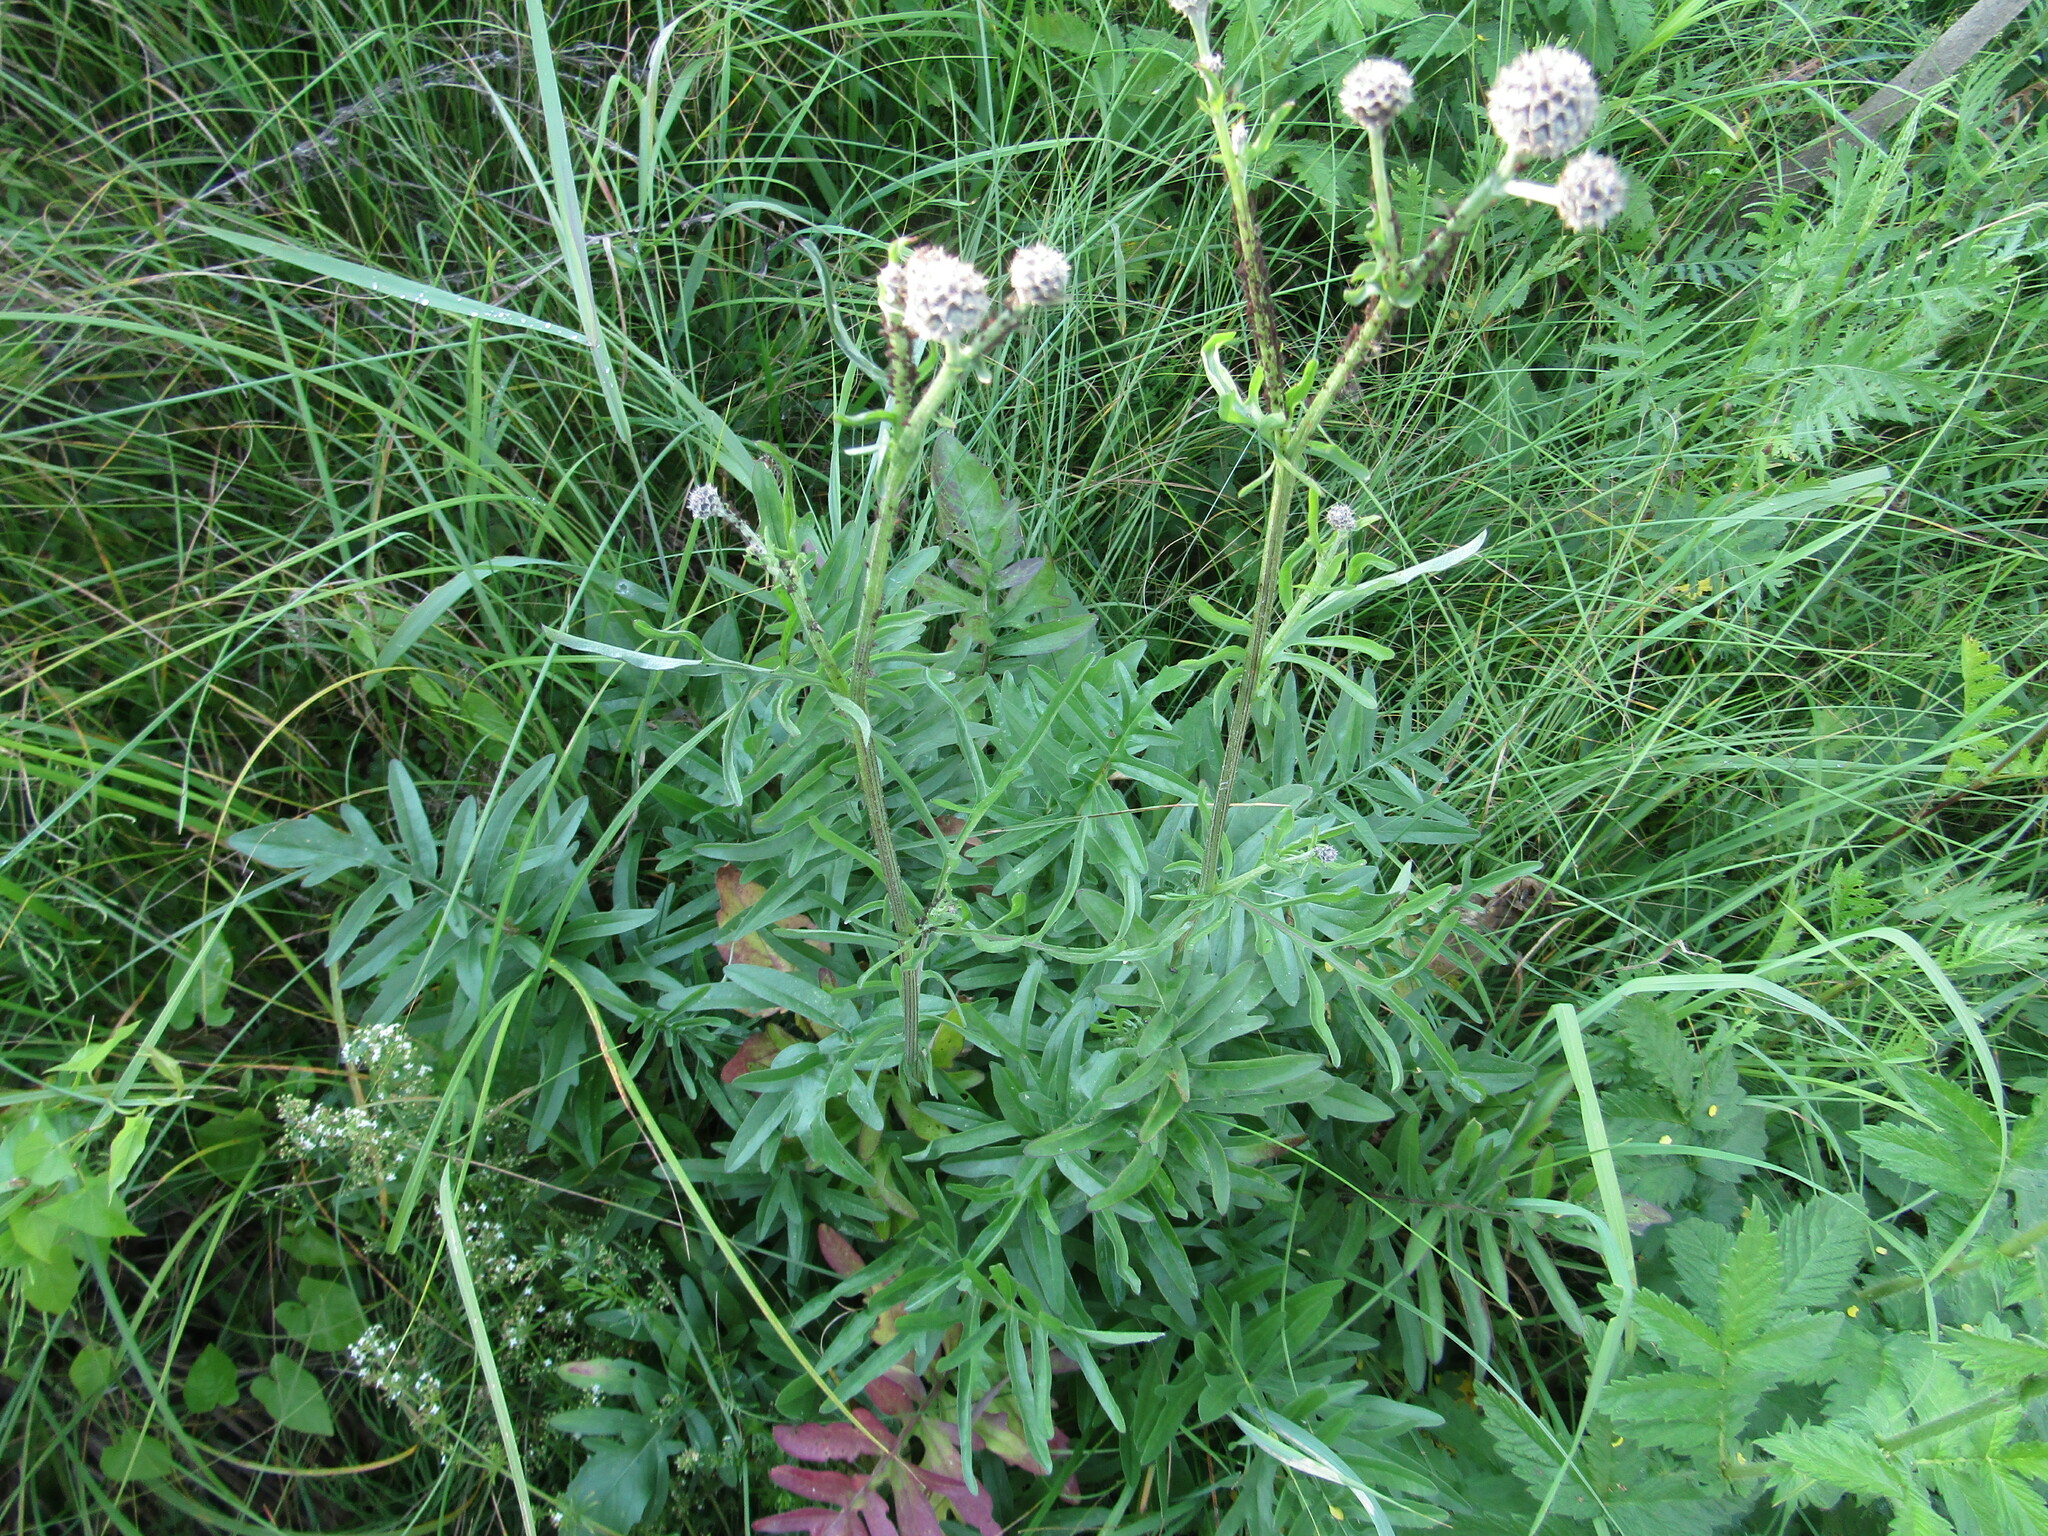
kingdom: Plantae
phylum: Tracheophyta
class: Magnoliopsida
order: Asterales
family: Asteraceae
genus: Centaurea
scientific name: Centaurea scabiosa
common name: Greater knapweed
